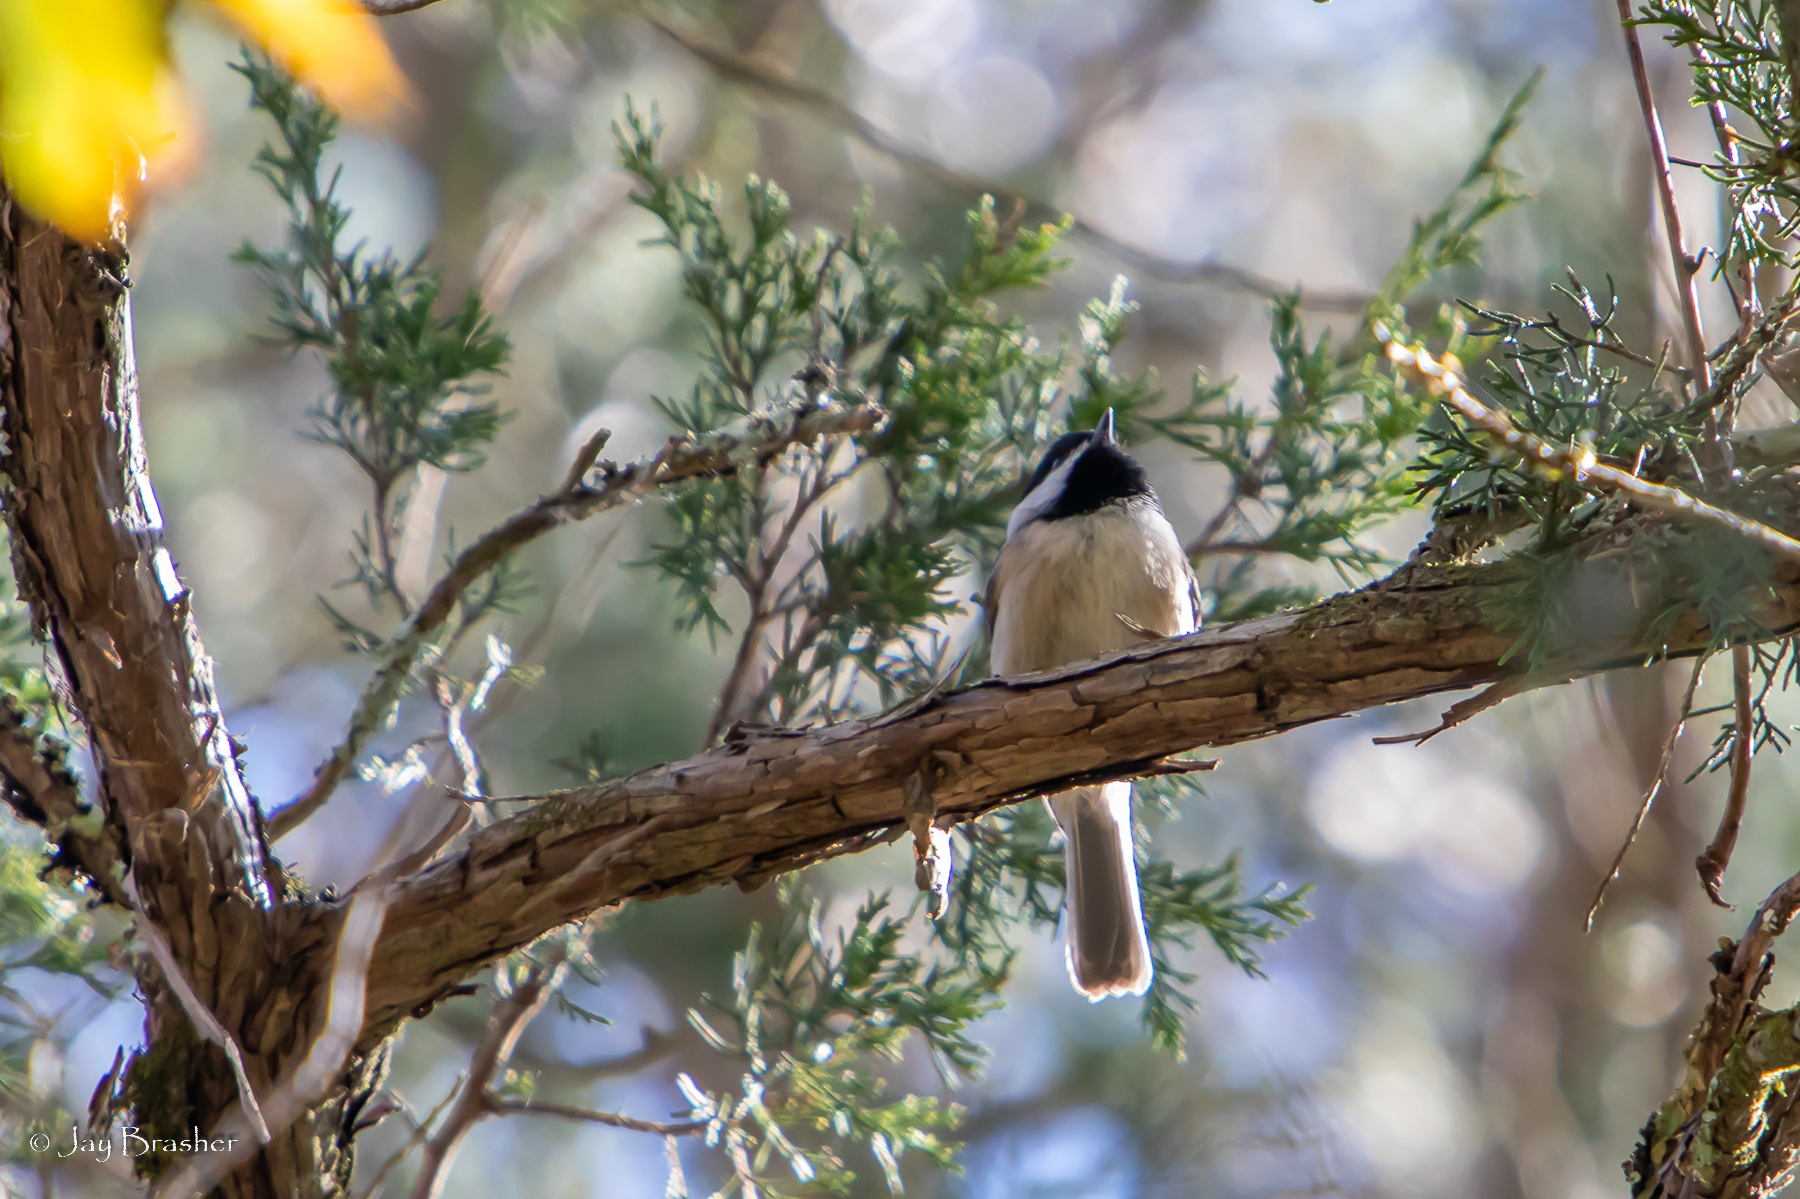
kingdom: Animalia
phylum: Chordata
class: Aves
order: Passeriformes
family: Paridae
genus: Poecile
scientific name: Poecile carolinensis
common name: Carolina chickadee
